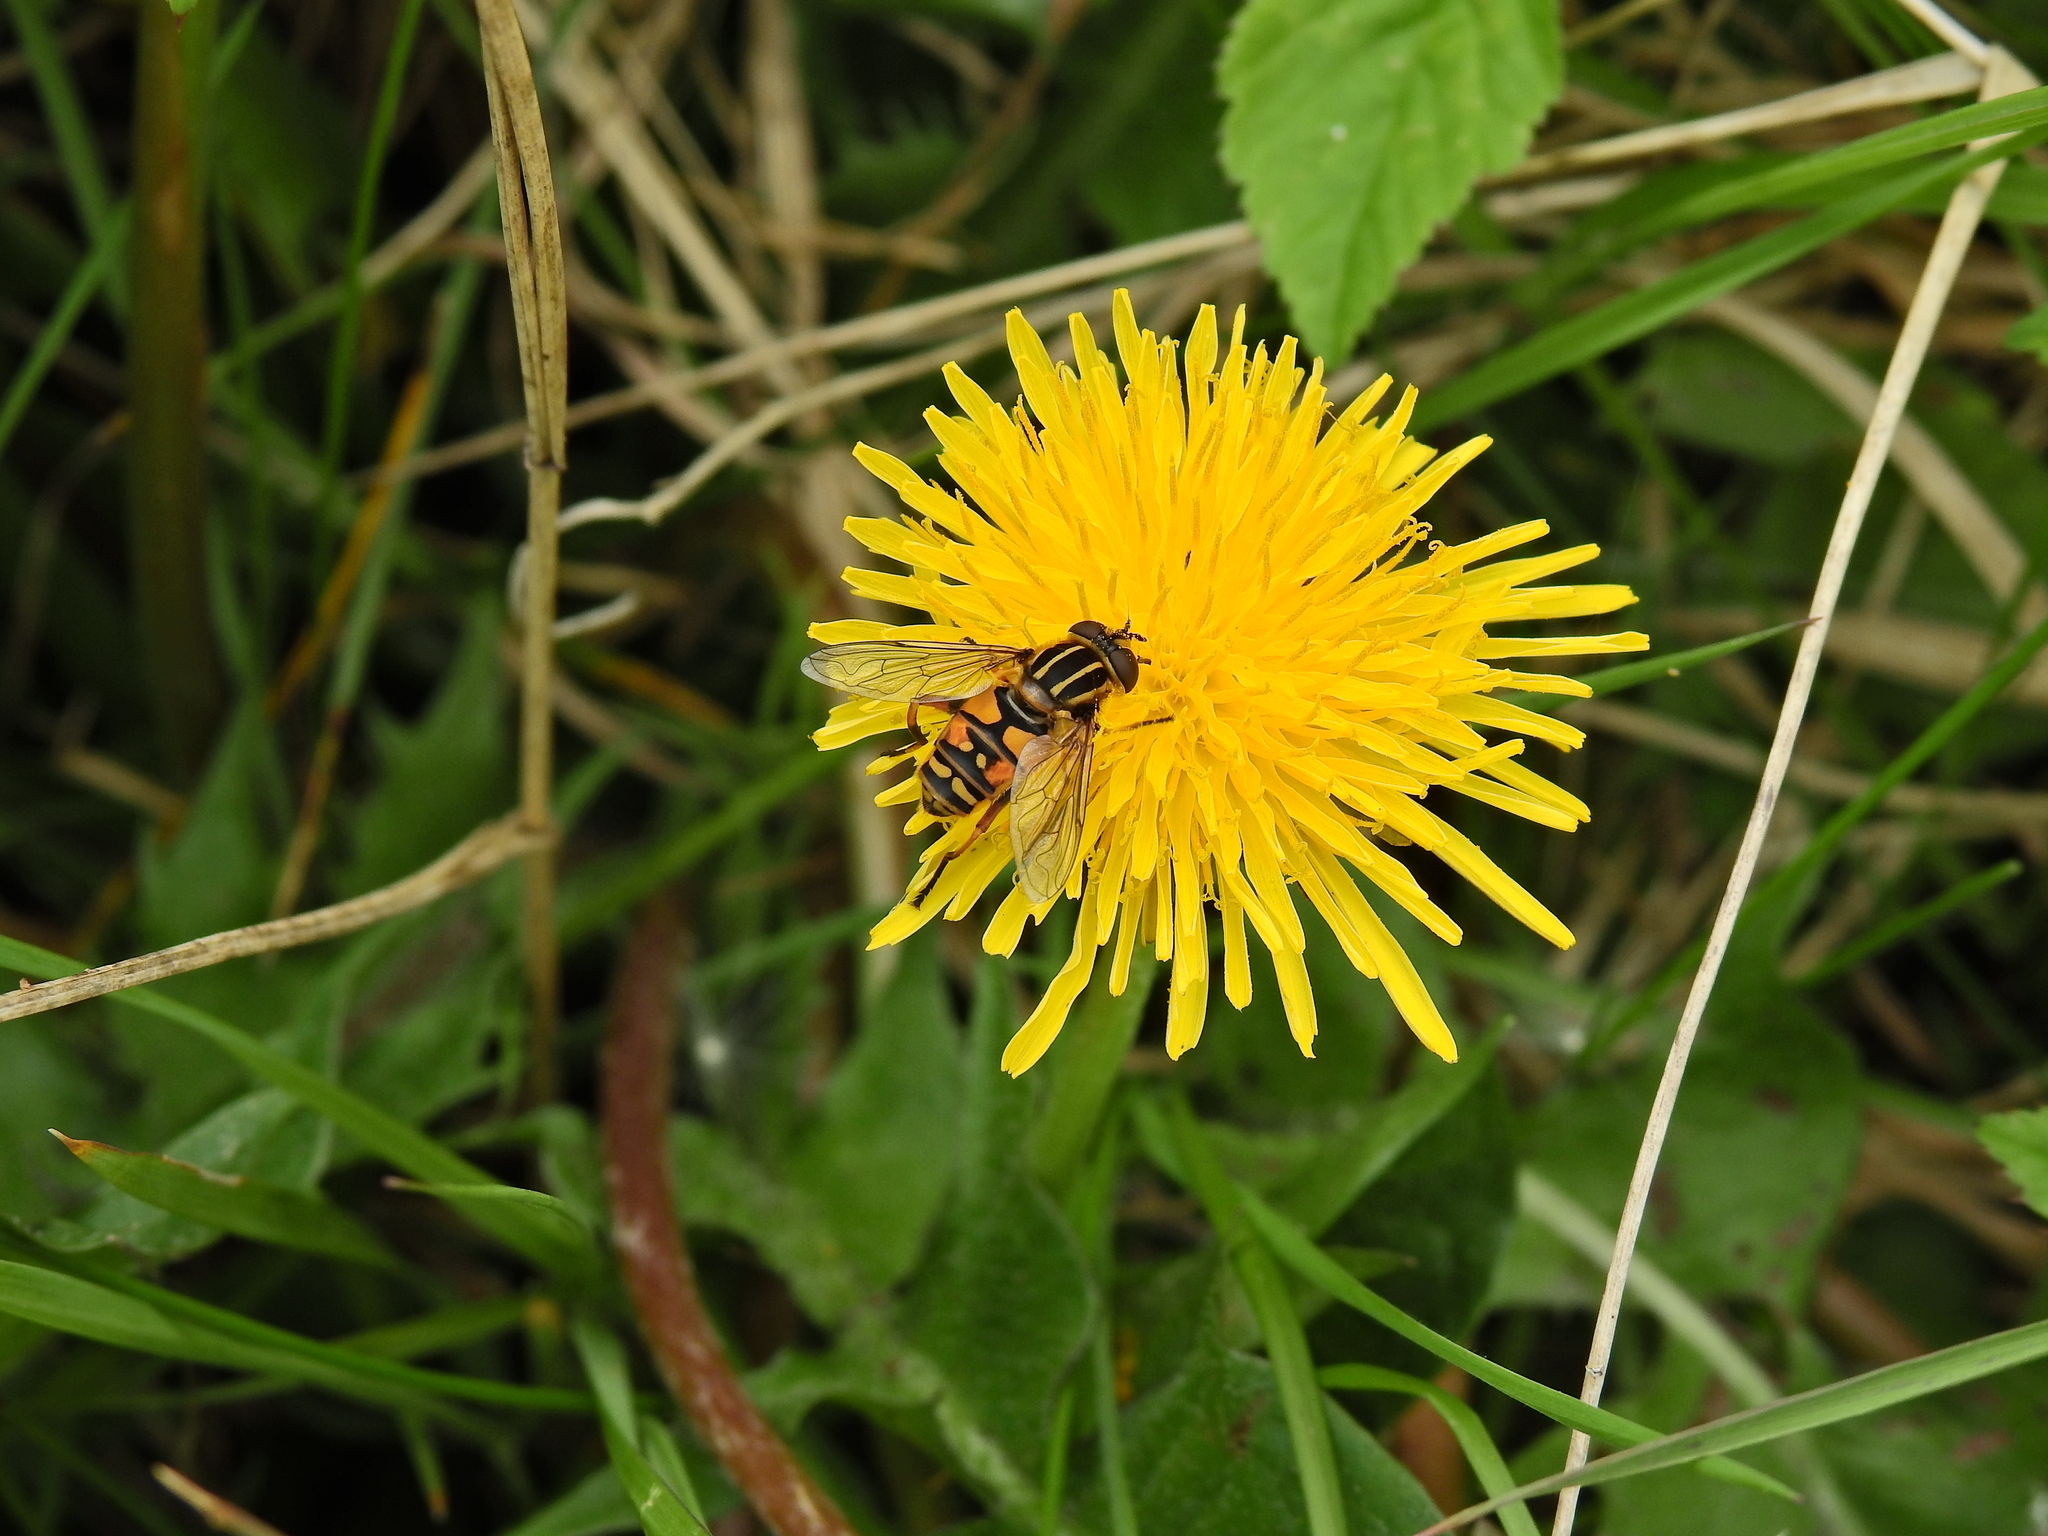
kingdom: Animalia
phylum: Arthropoda
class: Insecta
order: Diptera
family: Syrphidae
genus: Helophilus
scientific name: Helophilus pendulus
